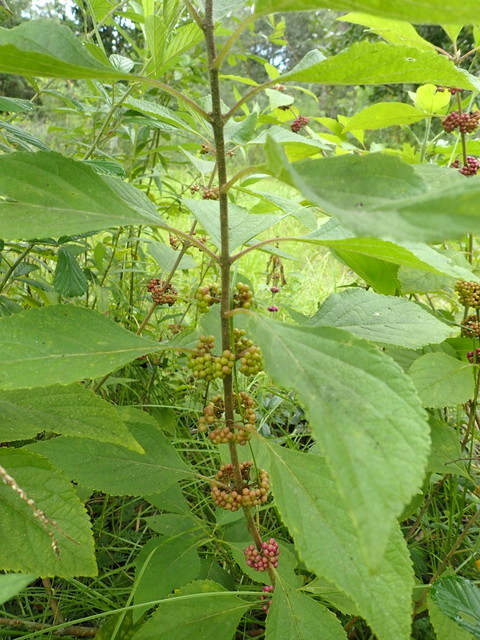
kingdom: Plantae
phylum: Tracheophyta
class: Magnoliopsida
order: Lamiales
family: Lamiaceae
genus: Callicarpa
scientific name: Callicarpa americana
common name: American beautyberry
